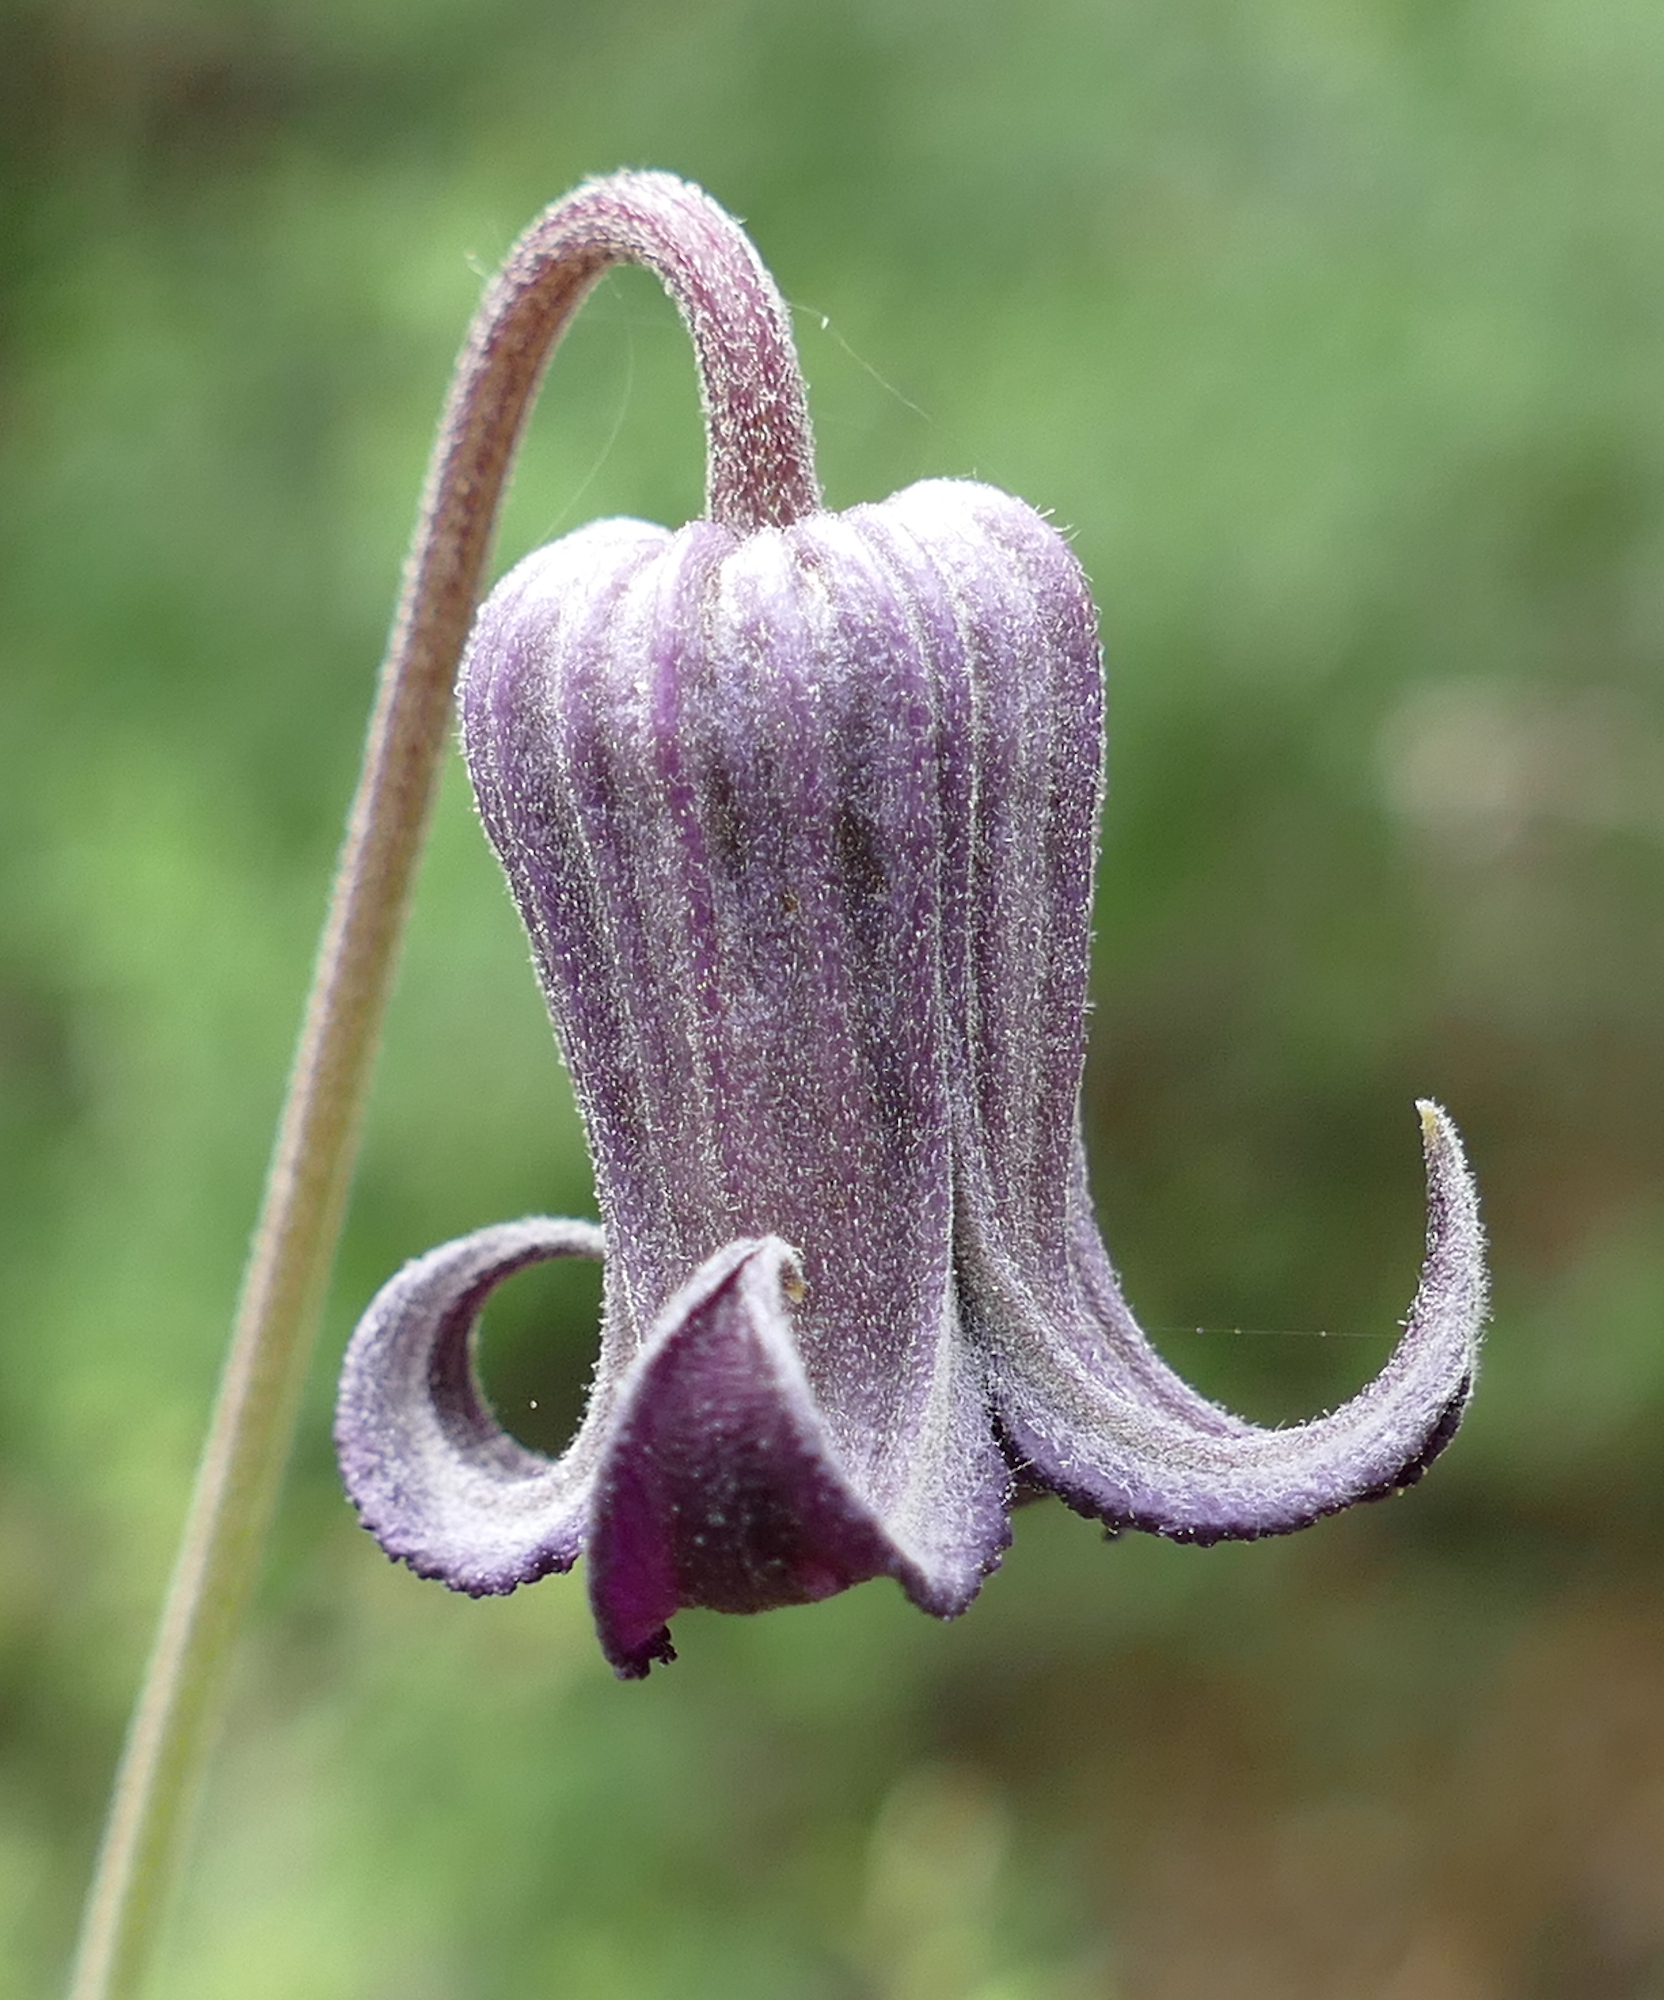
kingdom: Plantae
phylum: Tracheophyta
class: Magnoliopsida
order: Ranunculales
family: Ranunculaceae
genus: Clematis
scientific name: Clematis pitcheri
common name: Bellflower clematis
